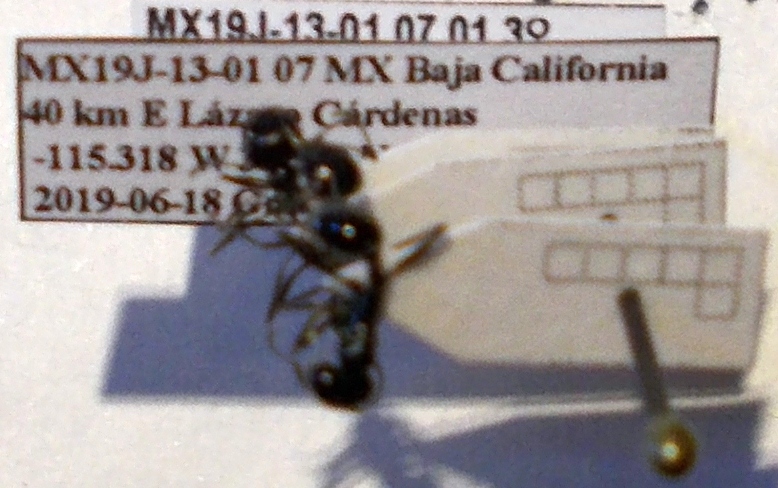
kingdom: Animalia
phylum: Arthropoda
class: Insecta
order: Hymenoptera
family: Formicidae
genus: Messor
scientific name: Messor pergandei
